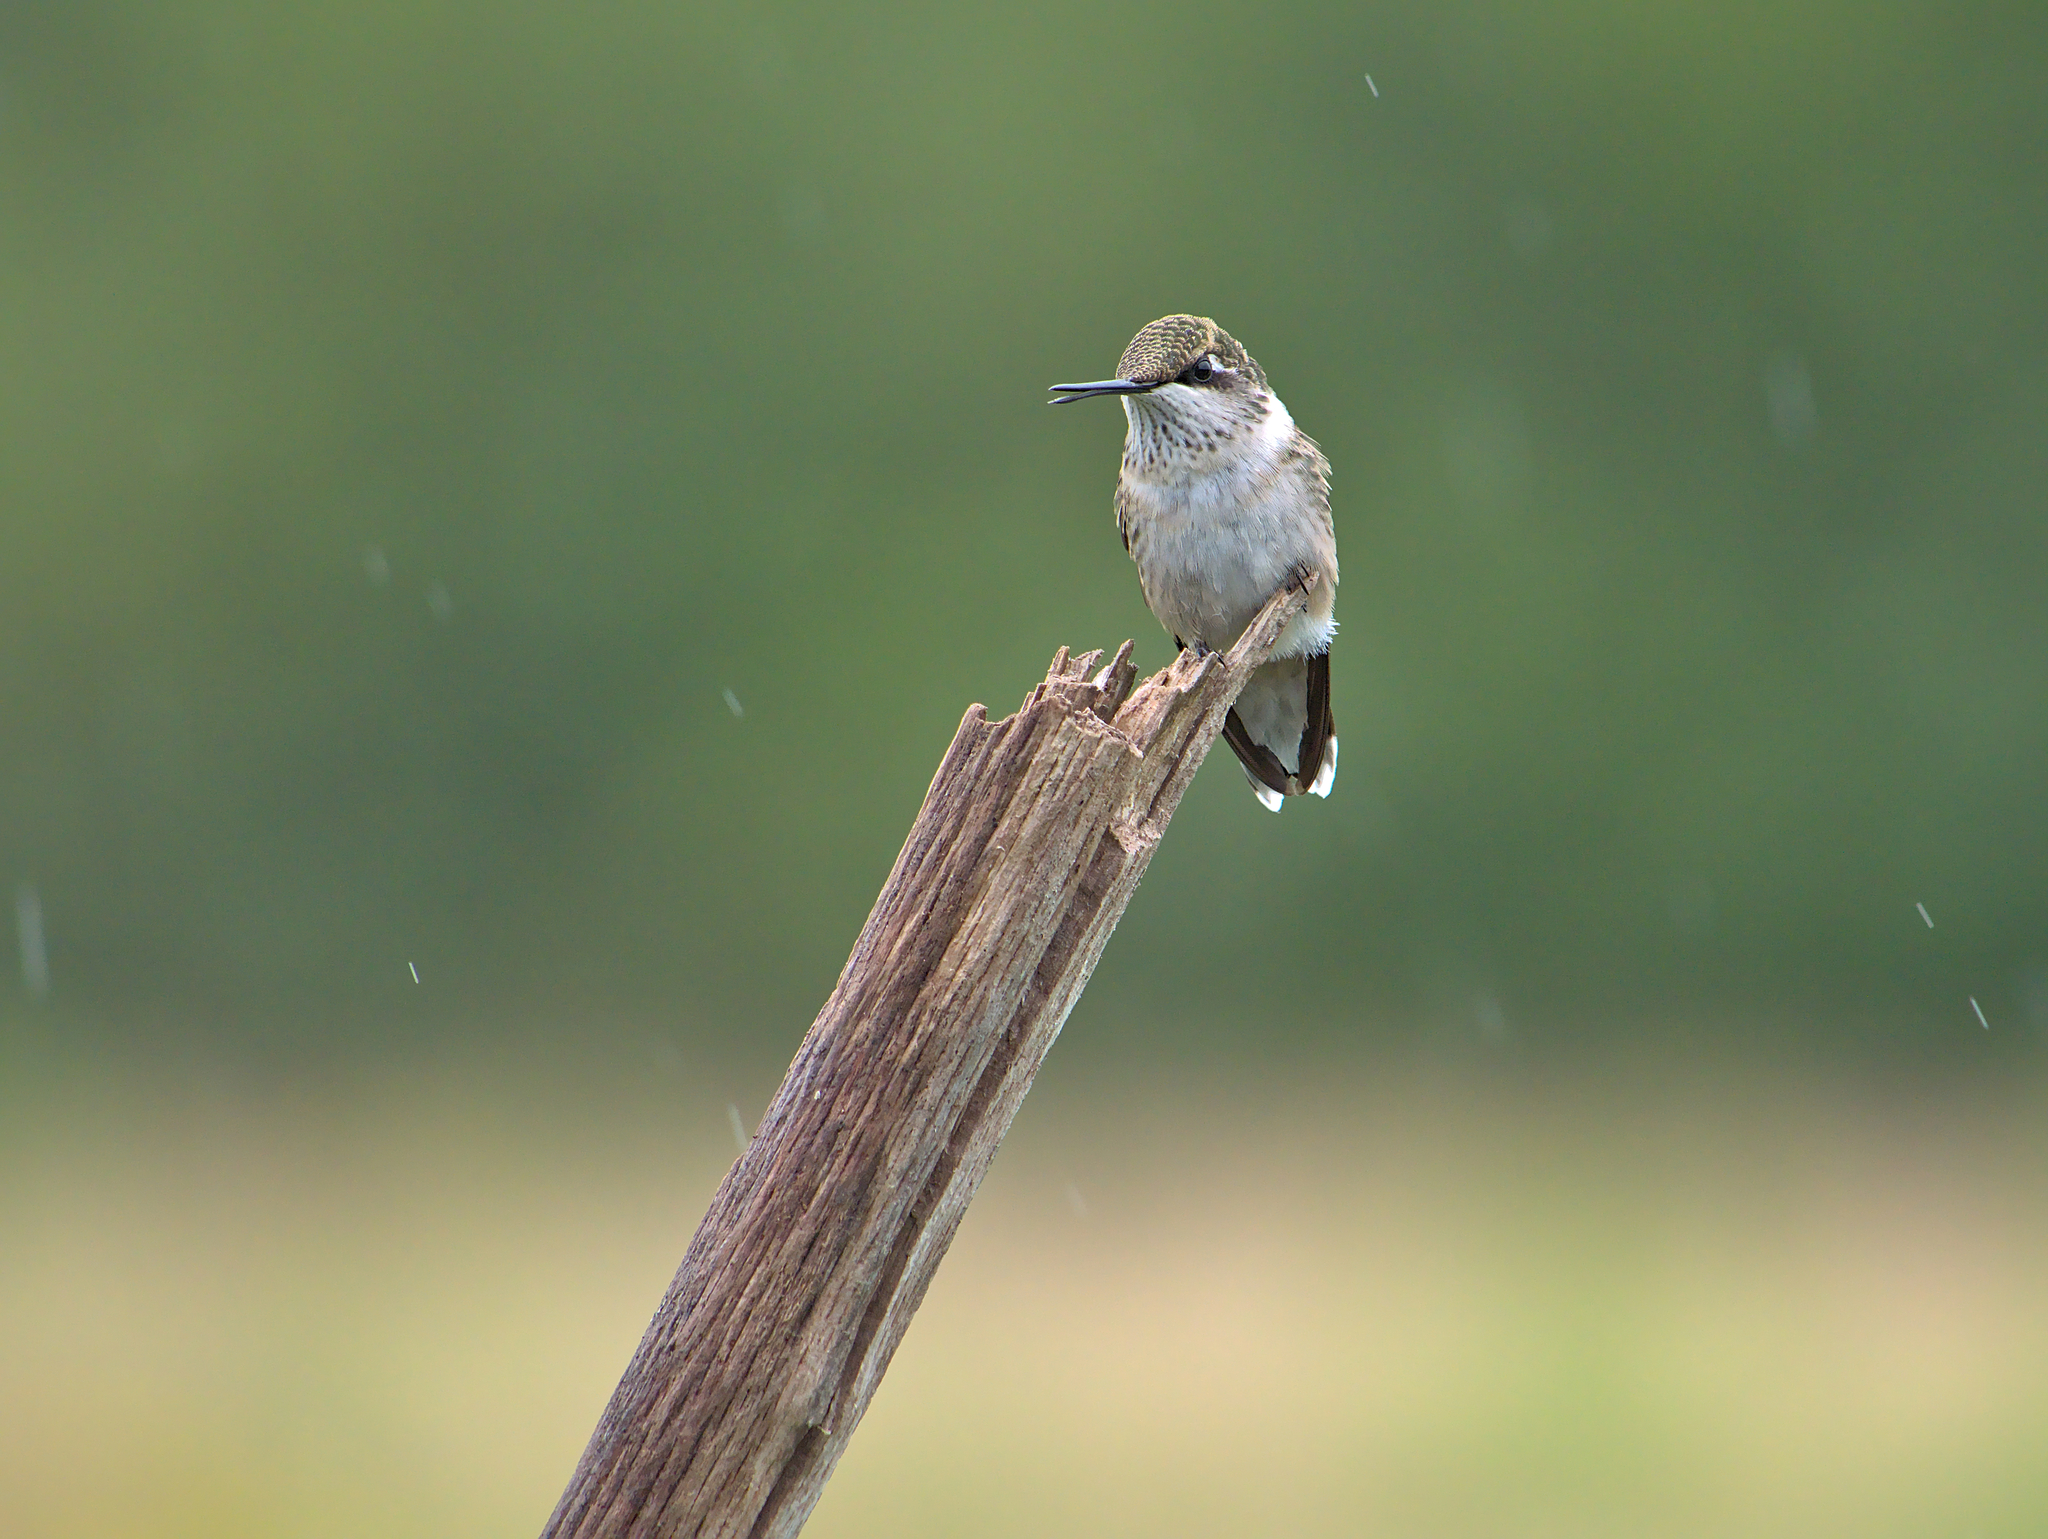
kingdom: Animalia
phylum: Chordata
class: Aves
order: Apodiformes
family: Trochilidae
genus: Archilochus
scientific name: Archilochus colubris
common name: Ruby-throated hummingbird
